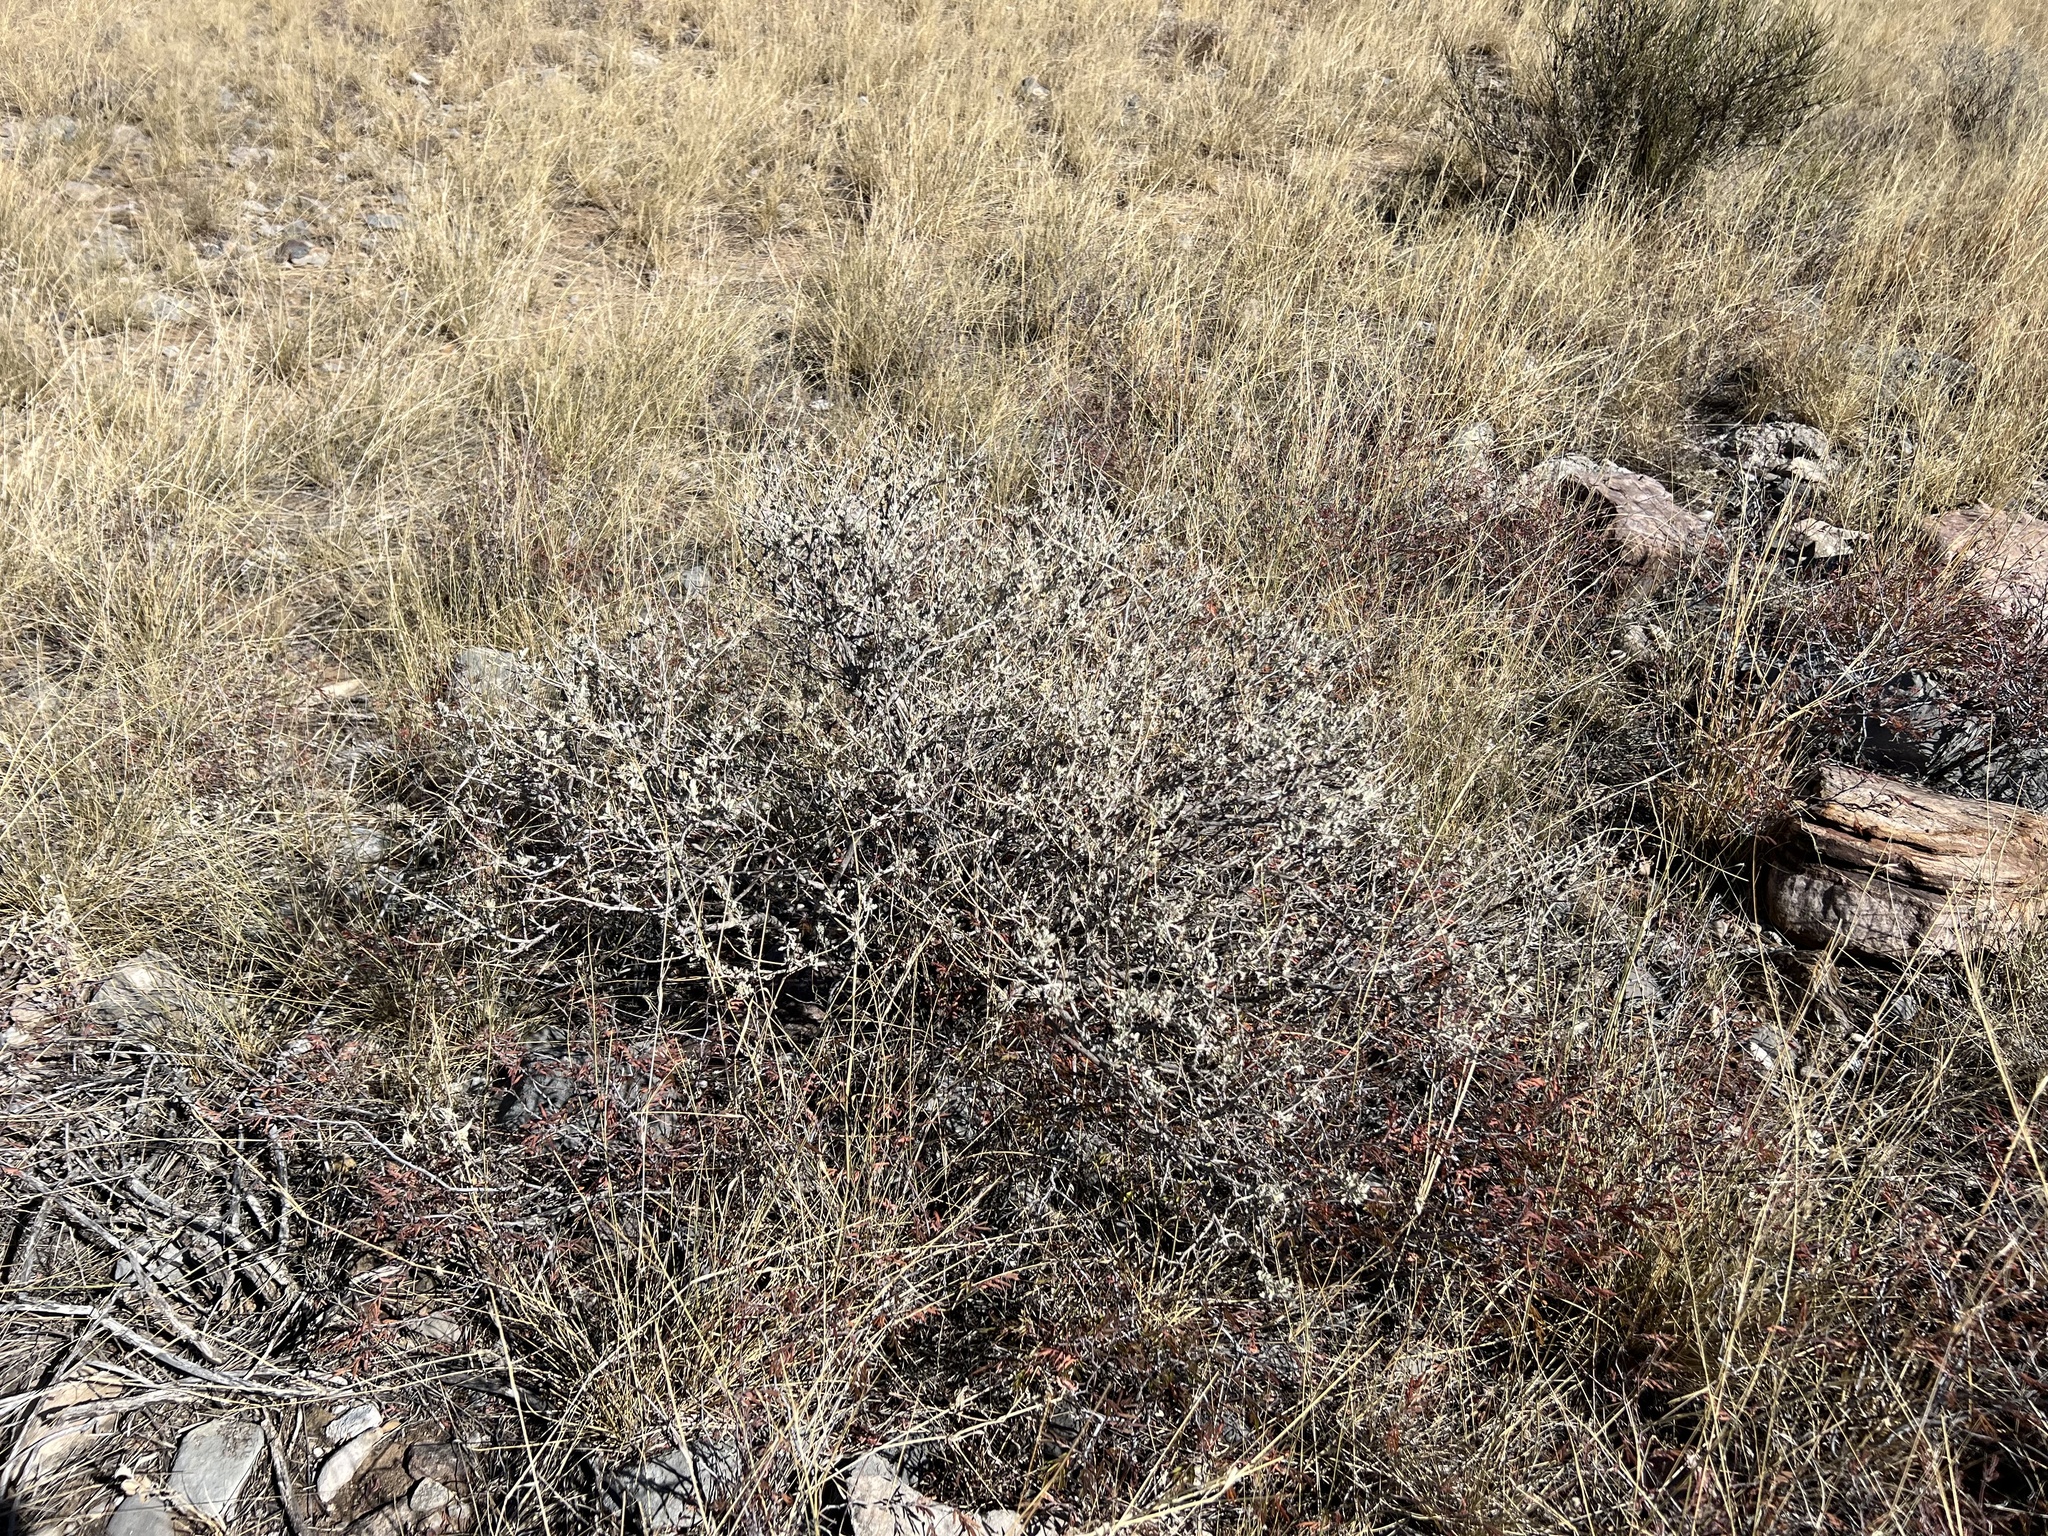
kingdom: Plantae
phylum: Tracheophyta
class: Magnoliopsida
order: Asterales
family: Asteraceae
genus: Parthenium
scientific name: Parthenium incanum
